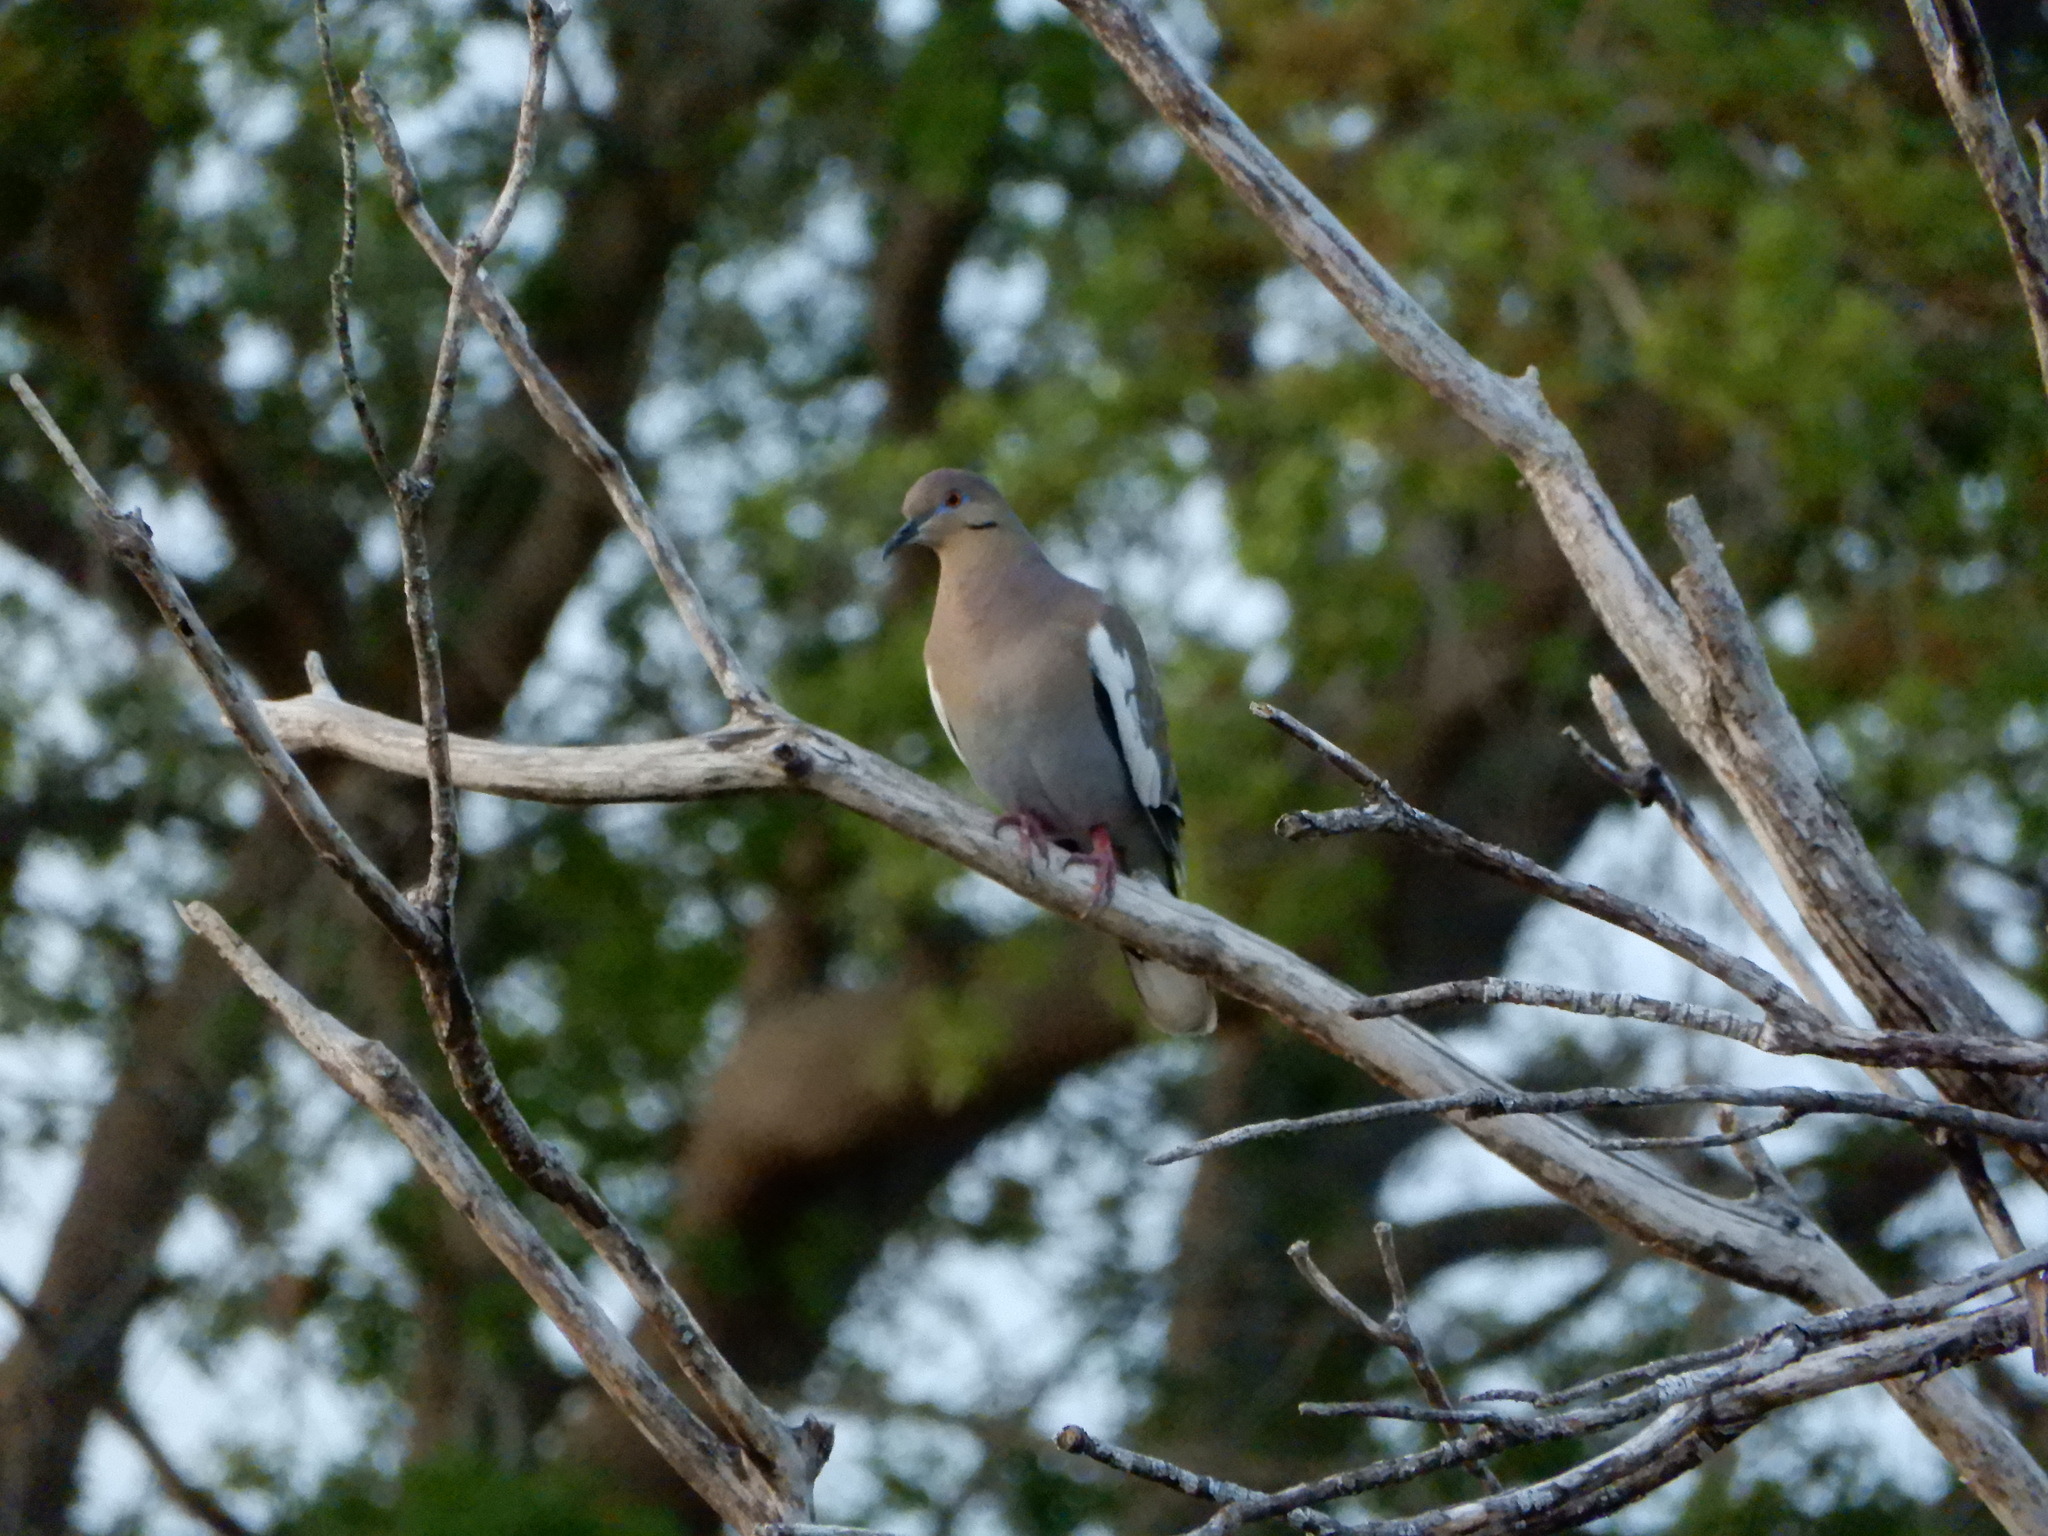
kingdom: Animalia
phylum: Chordata
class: Aves
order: Columbiformes
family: Columbidae
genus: Zenaida
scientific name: Zenaida asiatica
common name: White-winged dove
